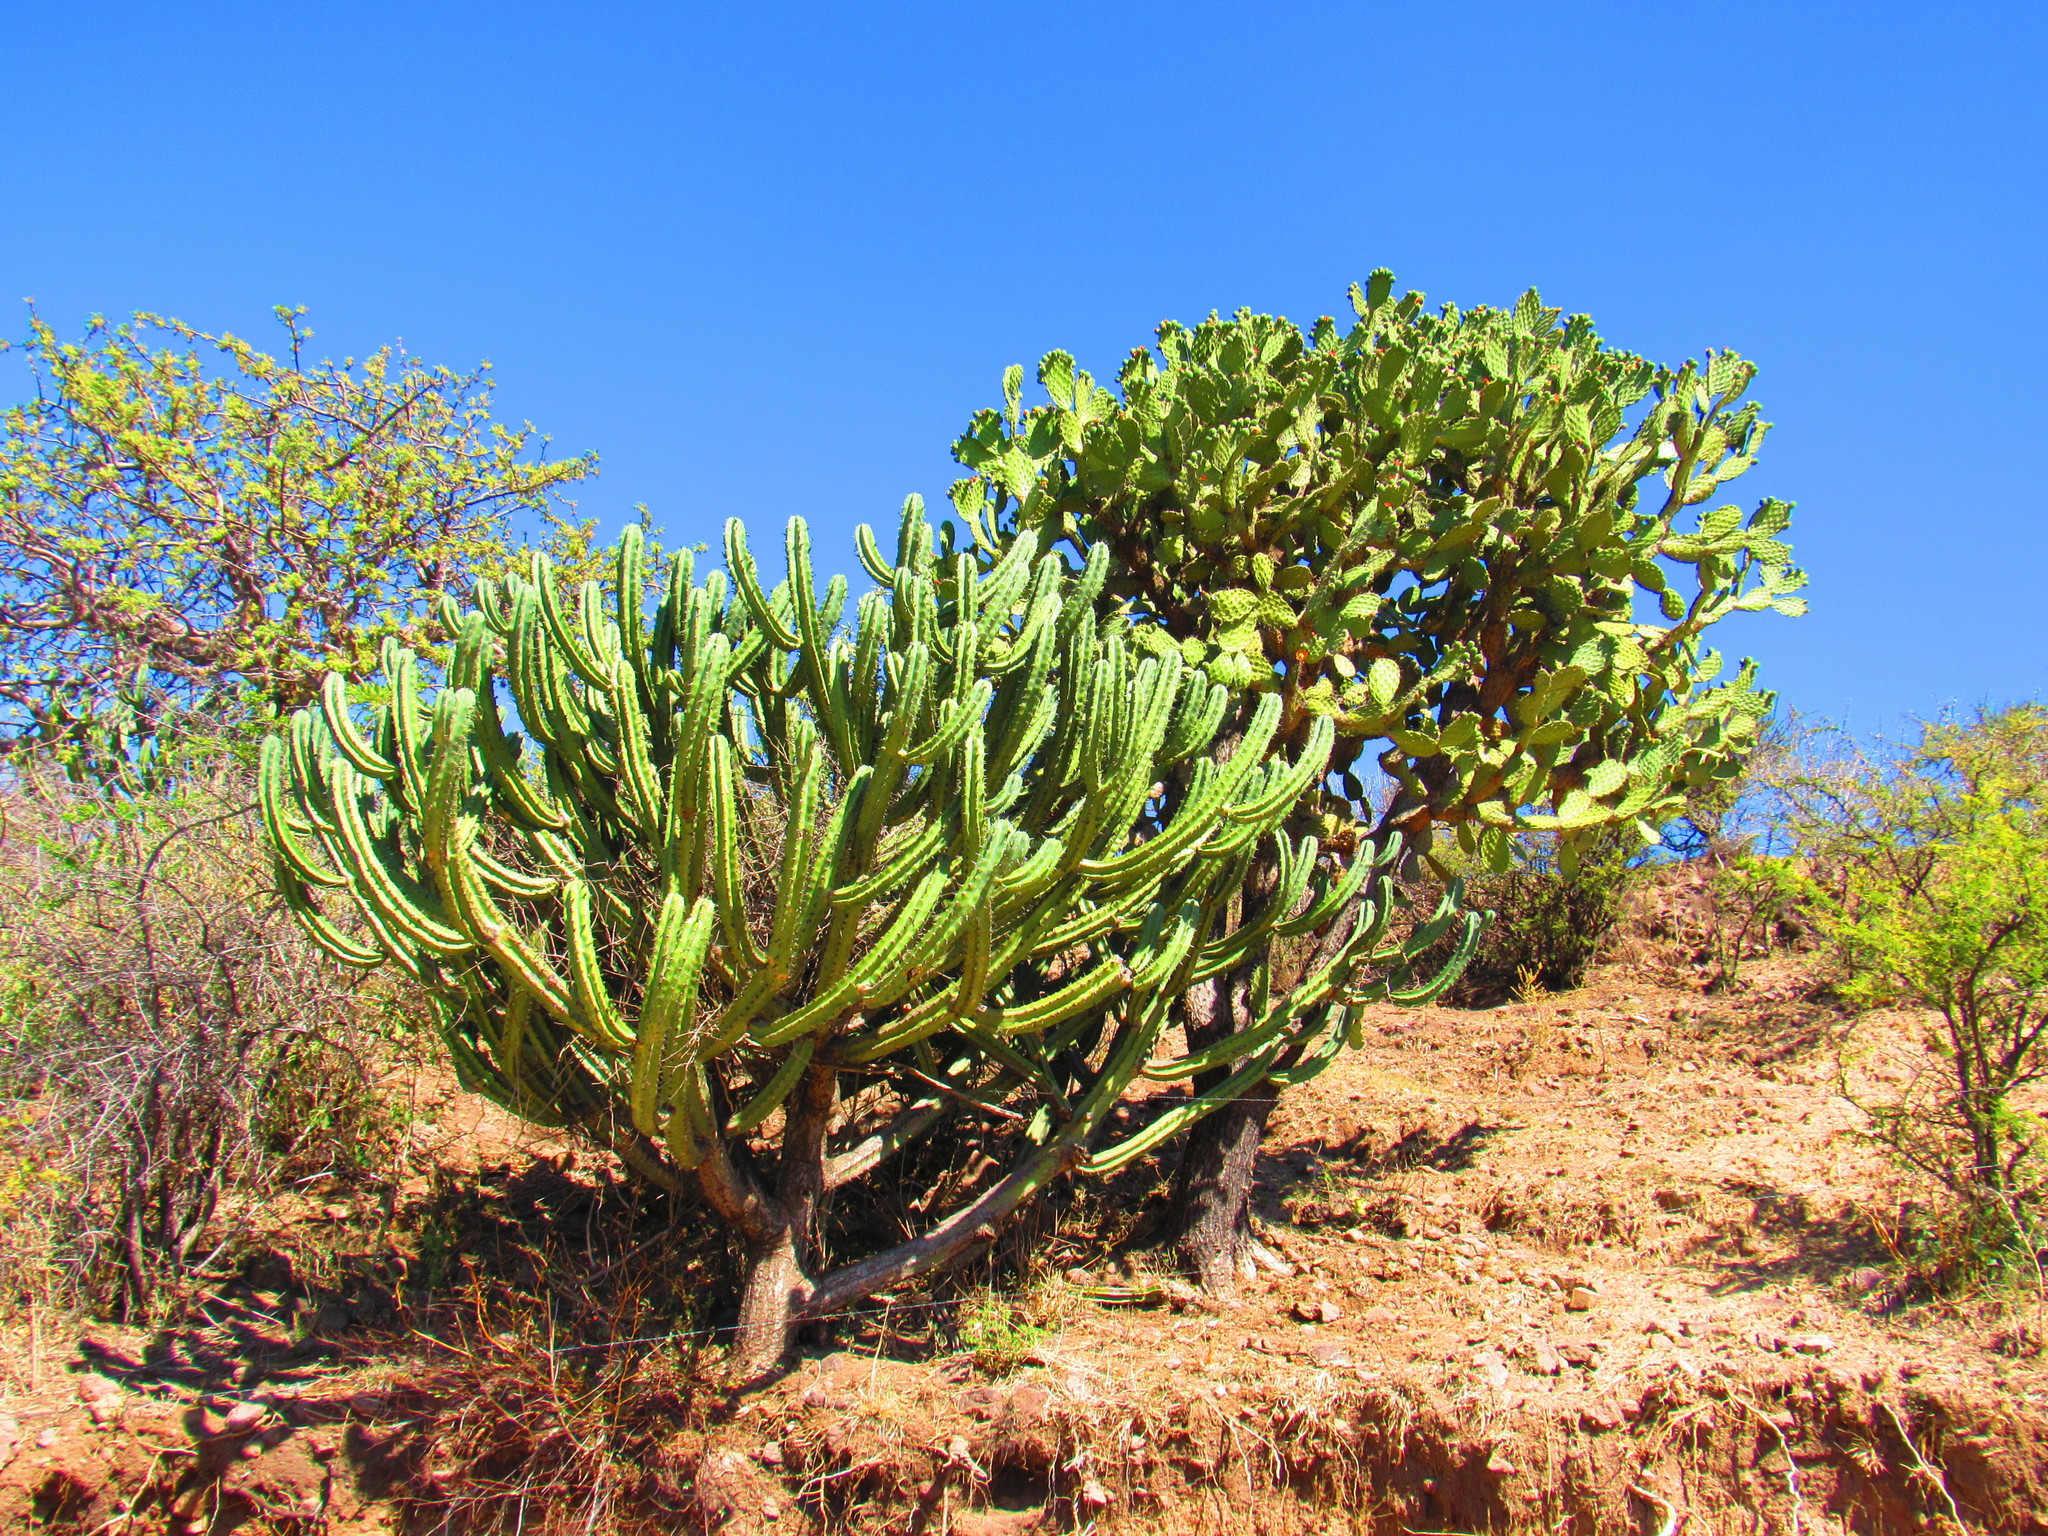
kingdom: Plantae
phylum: Tracheophyta
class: Magnoliopsida
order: Caryophyllales
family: Cactaceae
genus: Opuntia
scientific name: Opuntia tomentosa
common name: Woollyjoint pricklypear
